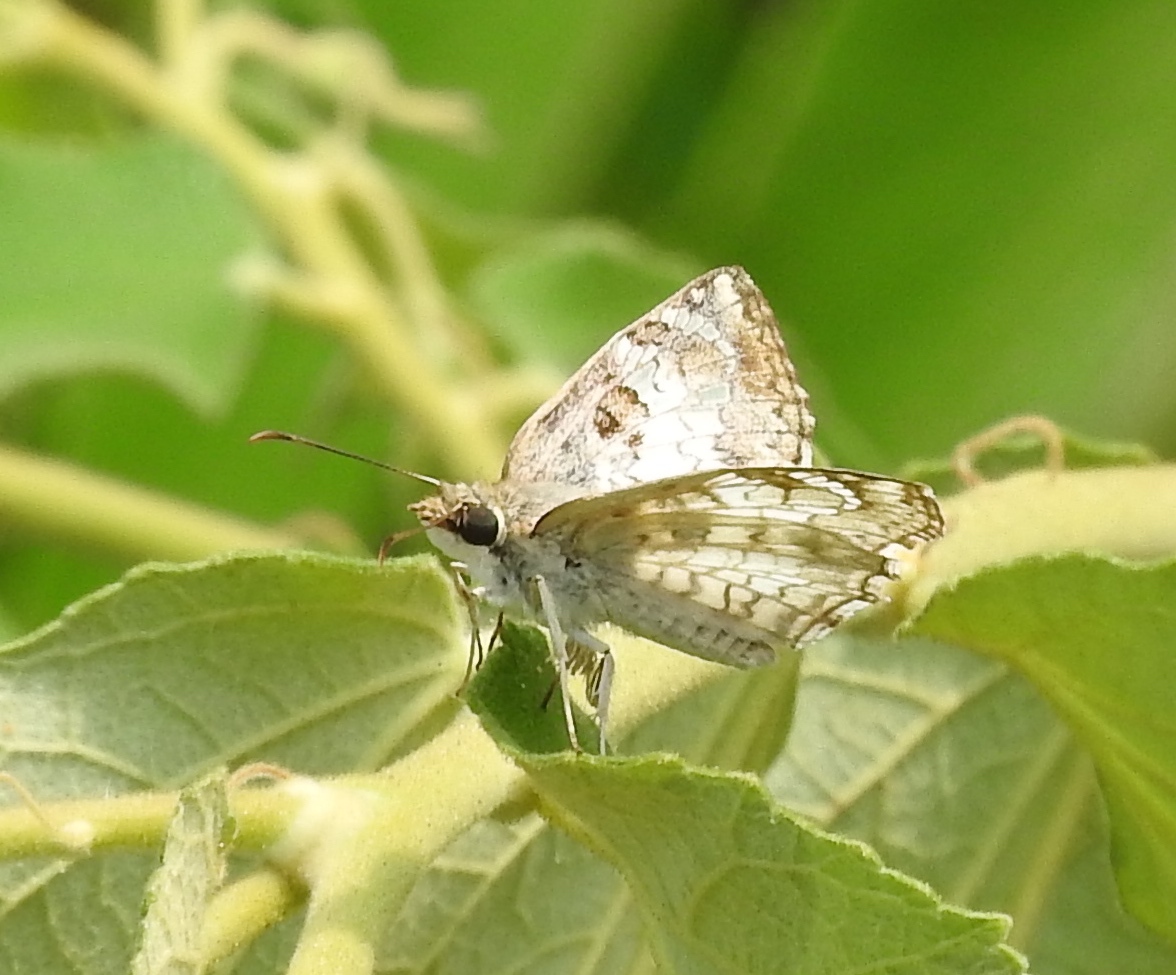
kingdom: Animalia
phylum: Arthropoda
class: Insecta
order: Lepidoptera
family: Hesperiidae
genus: Antigonus
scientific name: Antigonus emorsa
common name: White spurwing
